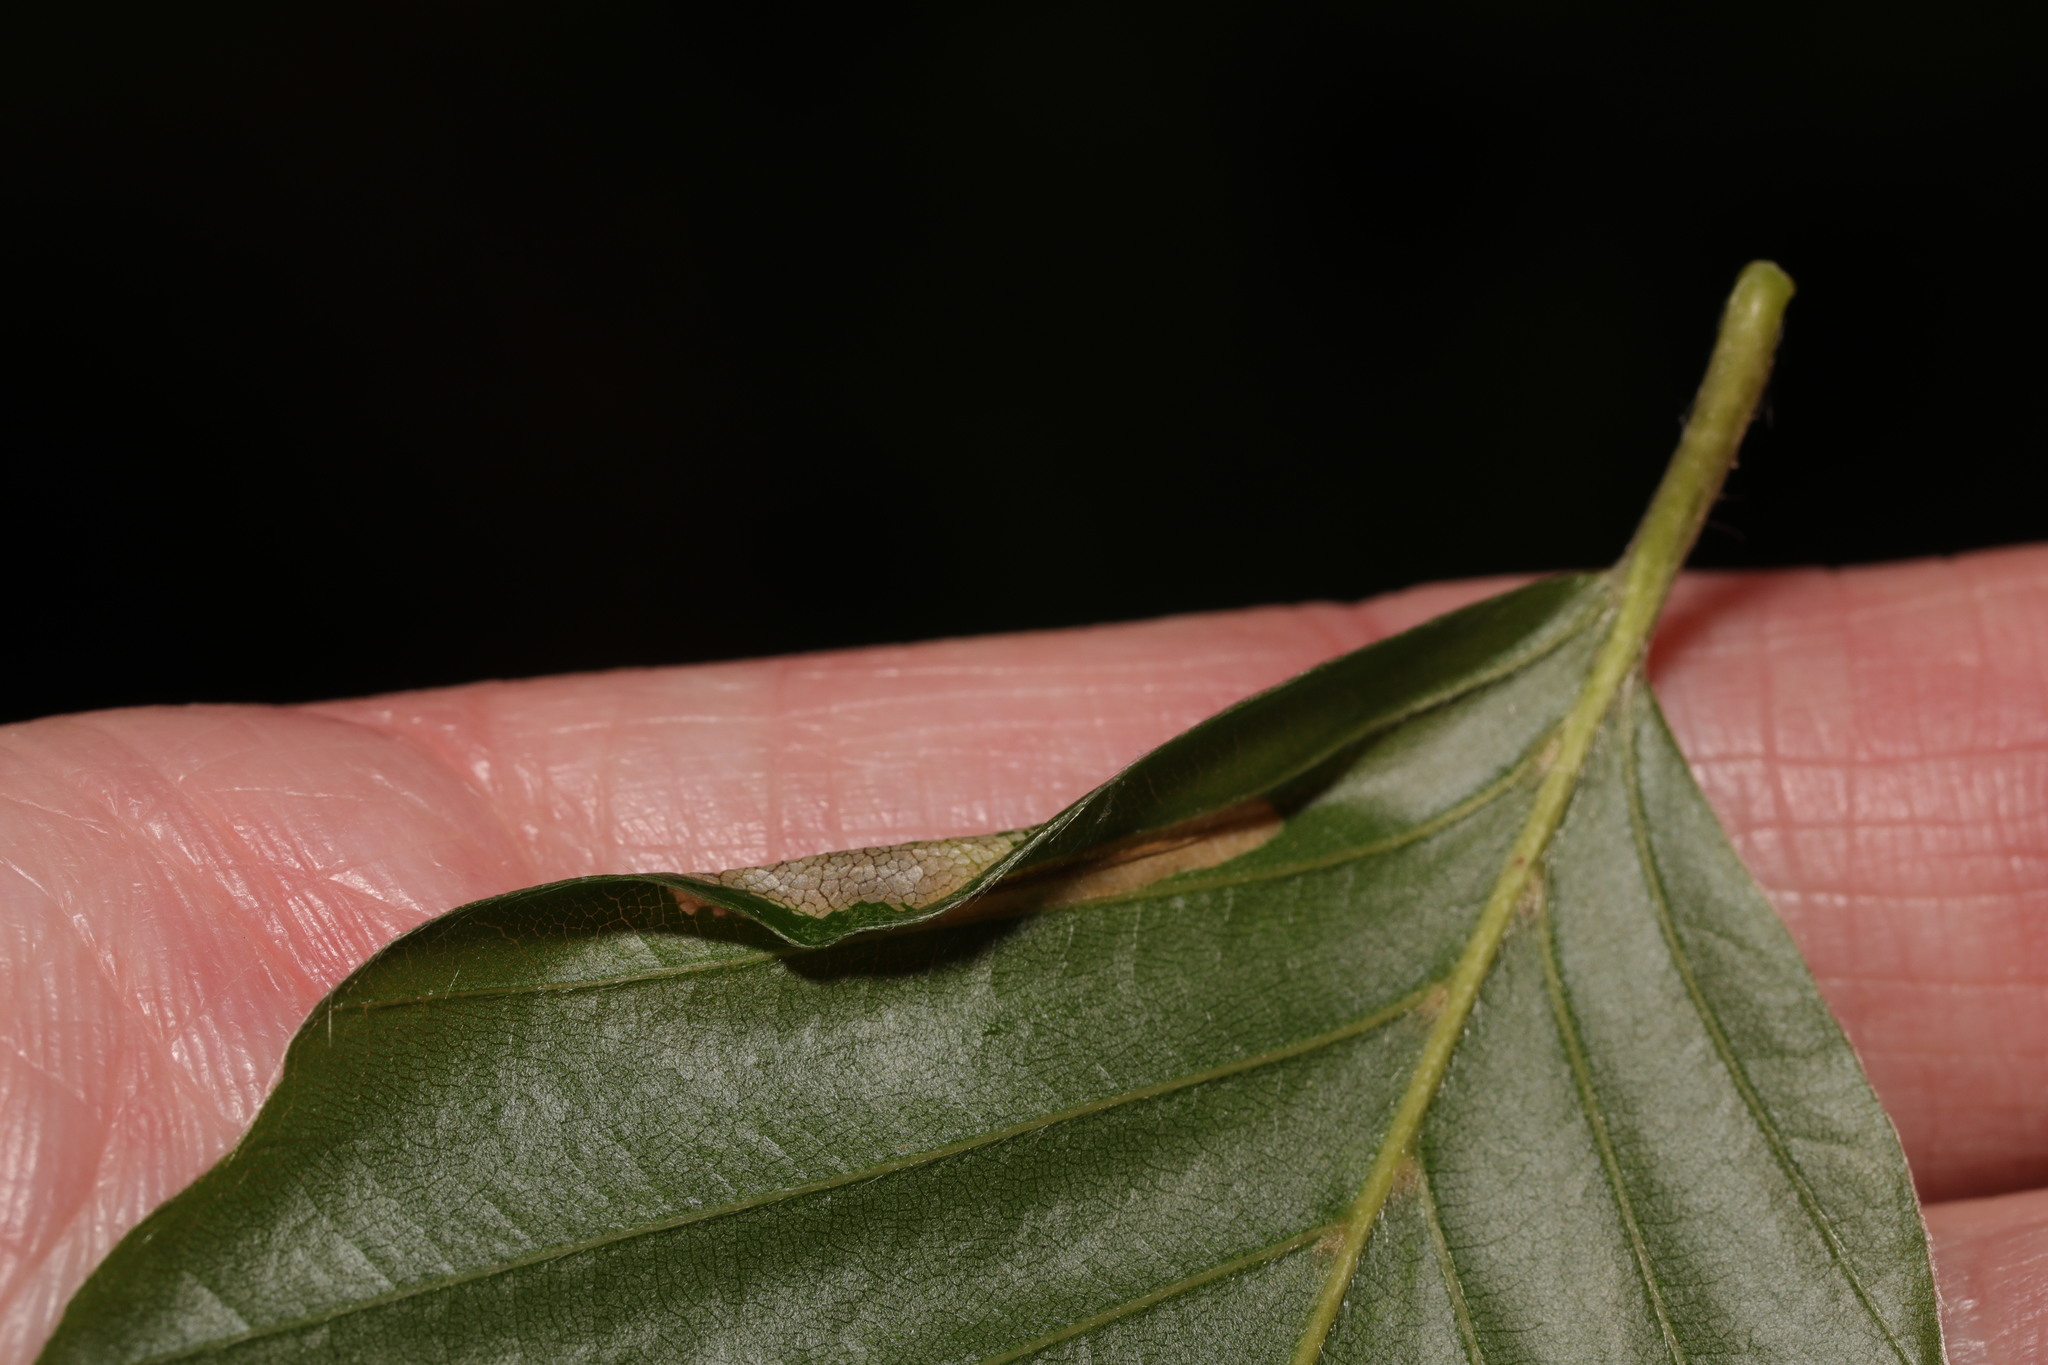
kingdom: Animalia
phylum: Arthropoda
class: Insecta
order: Lepidoptera
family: Gracillariidae
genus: Phyllonorycter
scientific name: Phyllonorycter maestingella
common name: Beech midget
